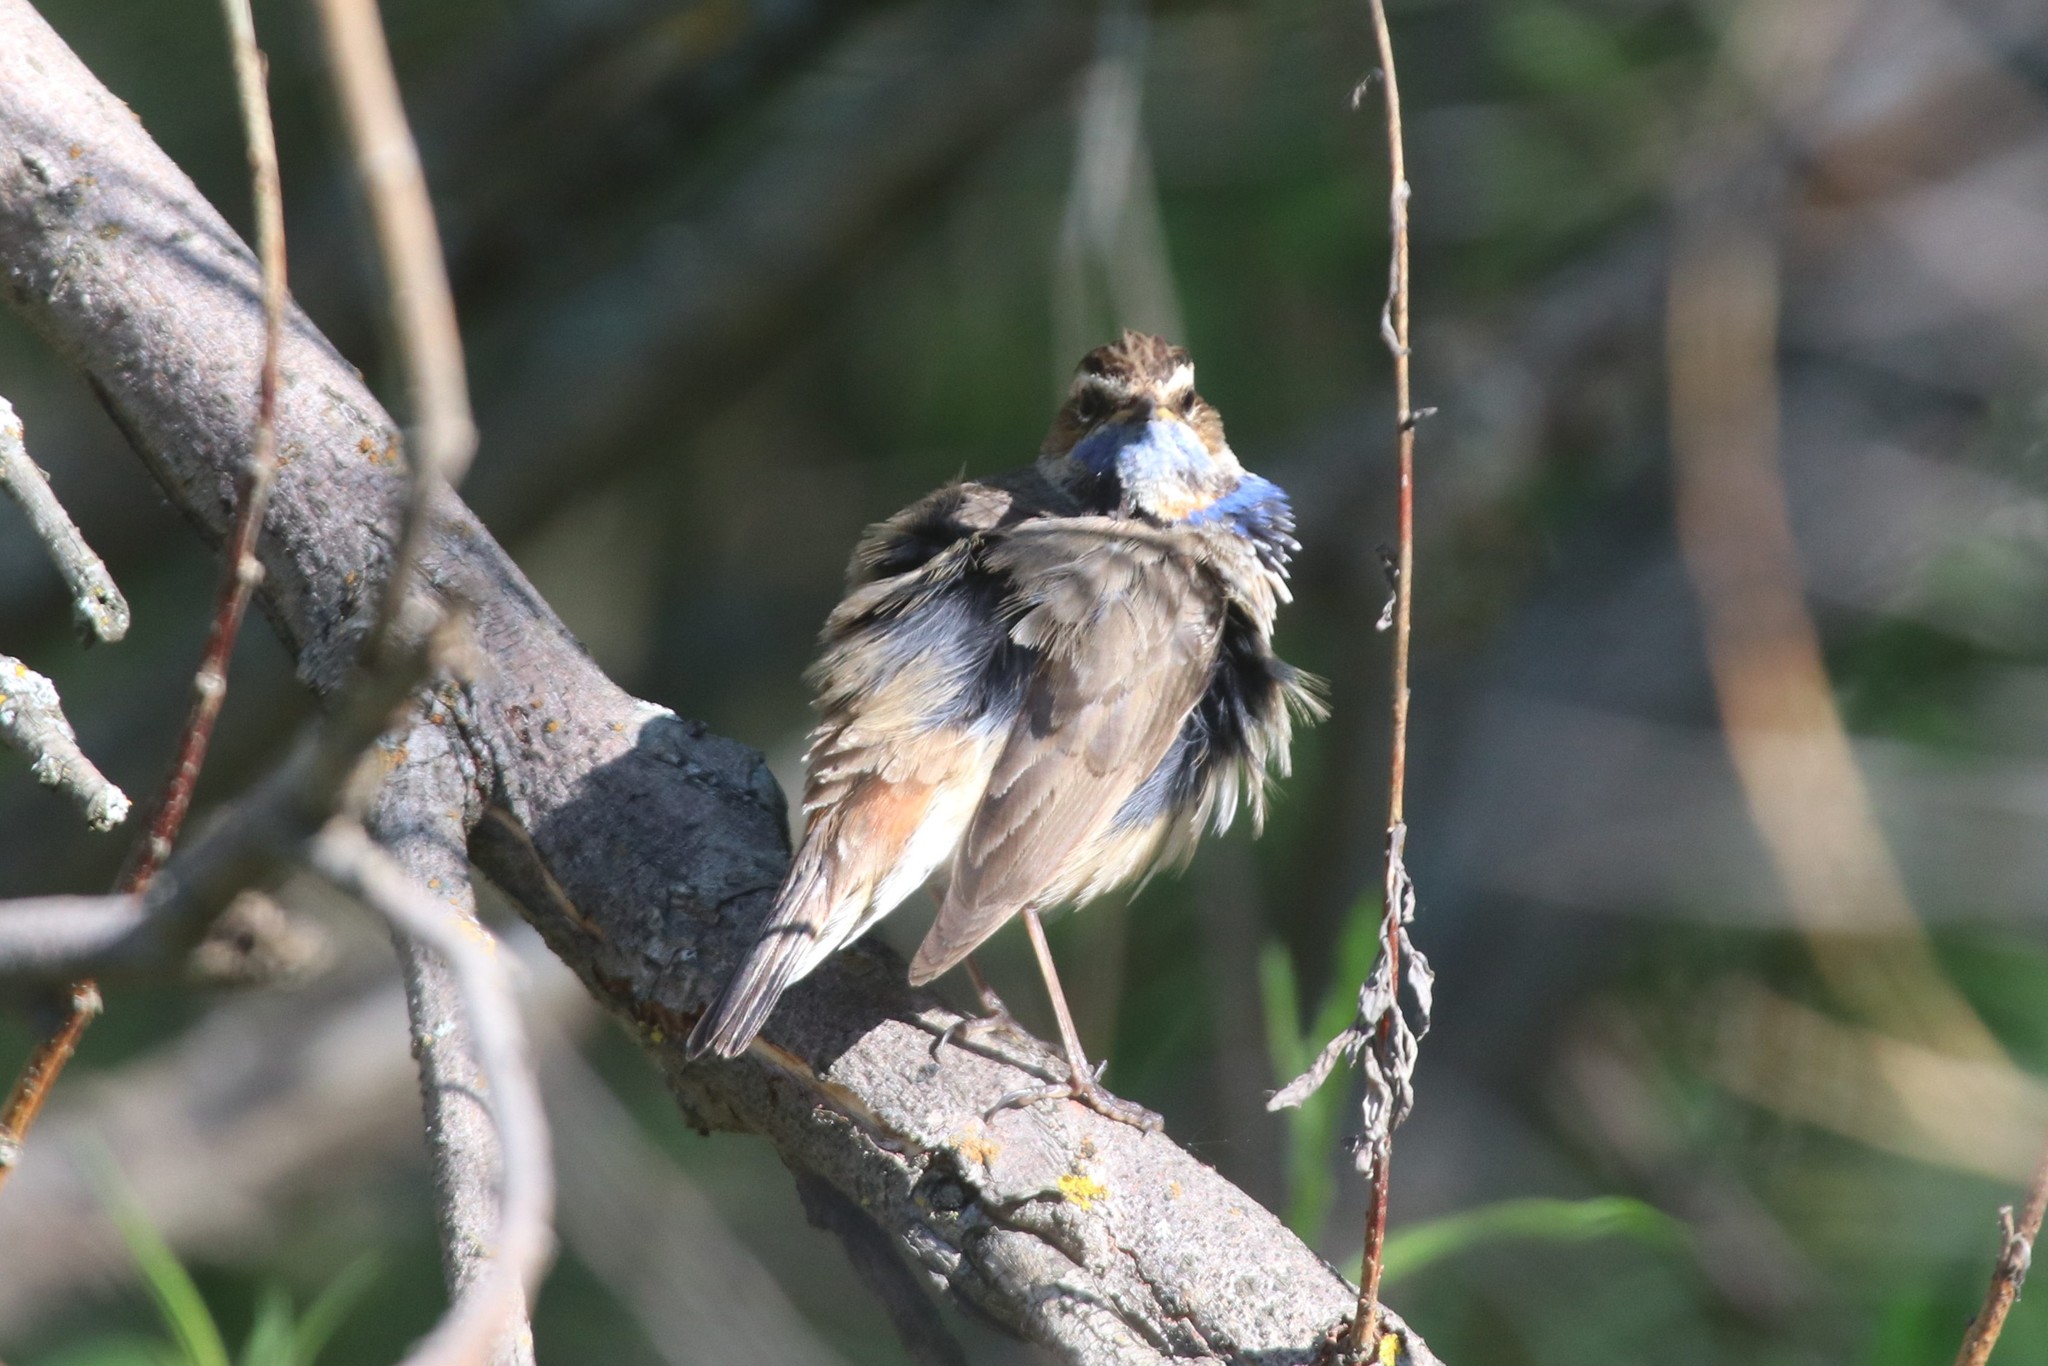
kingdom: Animalia
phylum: Chordata
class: Aves
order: Passeriformes
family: Muscicapidae
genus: Luscinia
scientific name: Luscinia svecica
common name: Bluethroat
